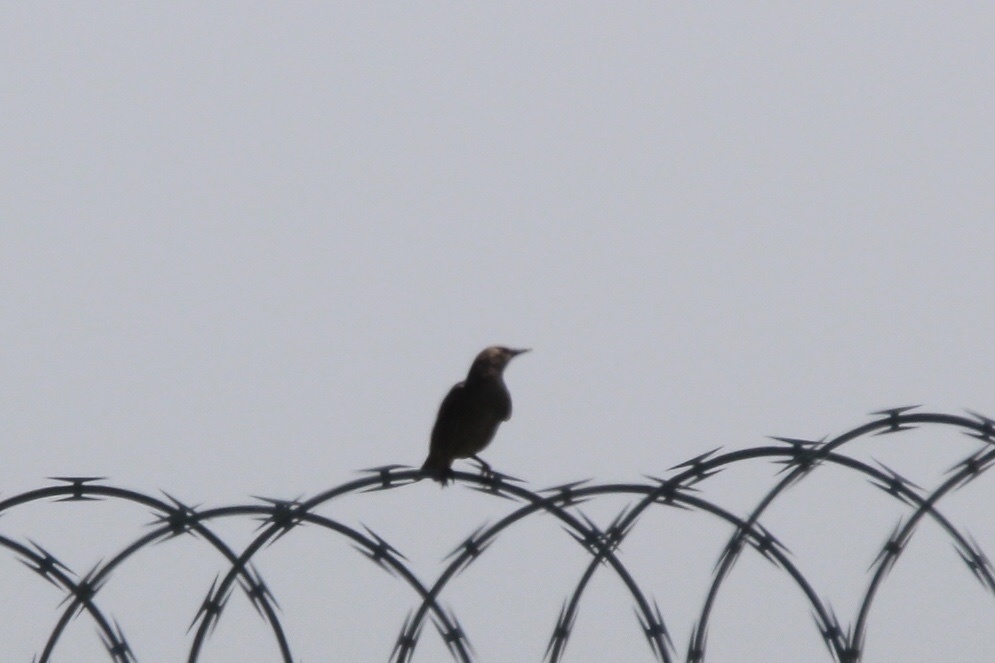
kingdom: Animalia
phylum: Chordata
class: Aves
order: Passeriformes
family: Sturnidae
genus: Sturnus
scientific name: Sturnus vulgaris
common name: Common starling
